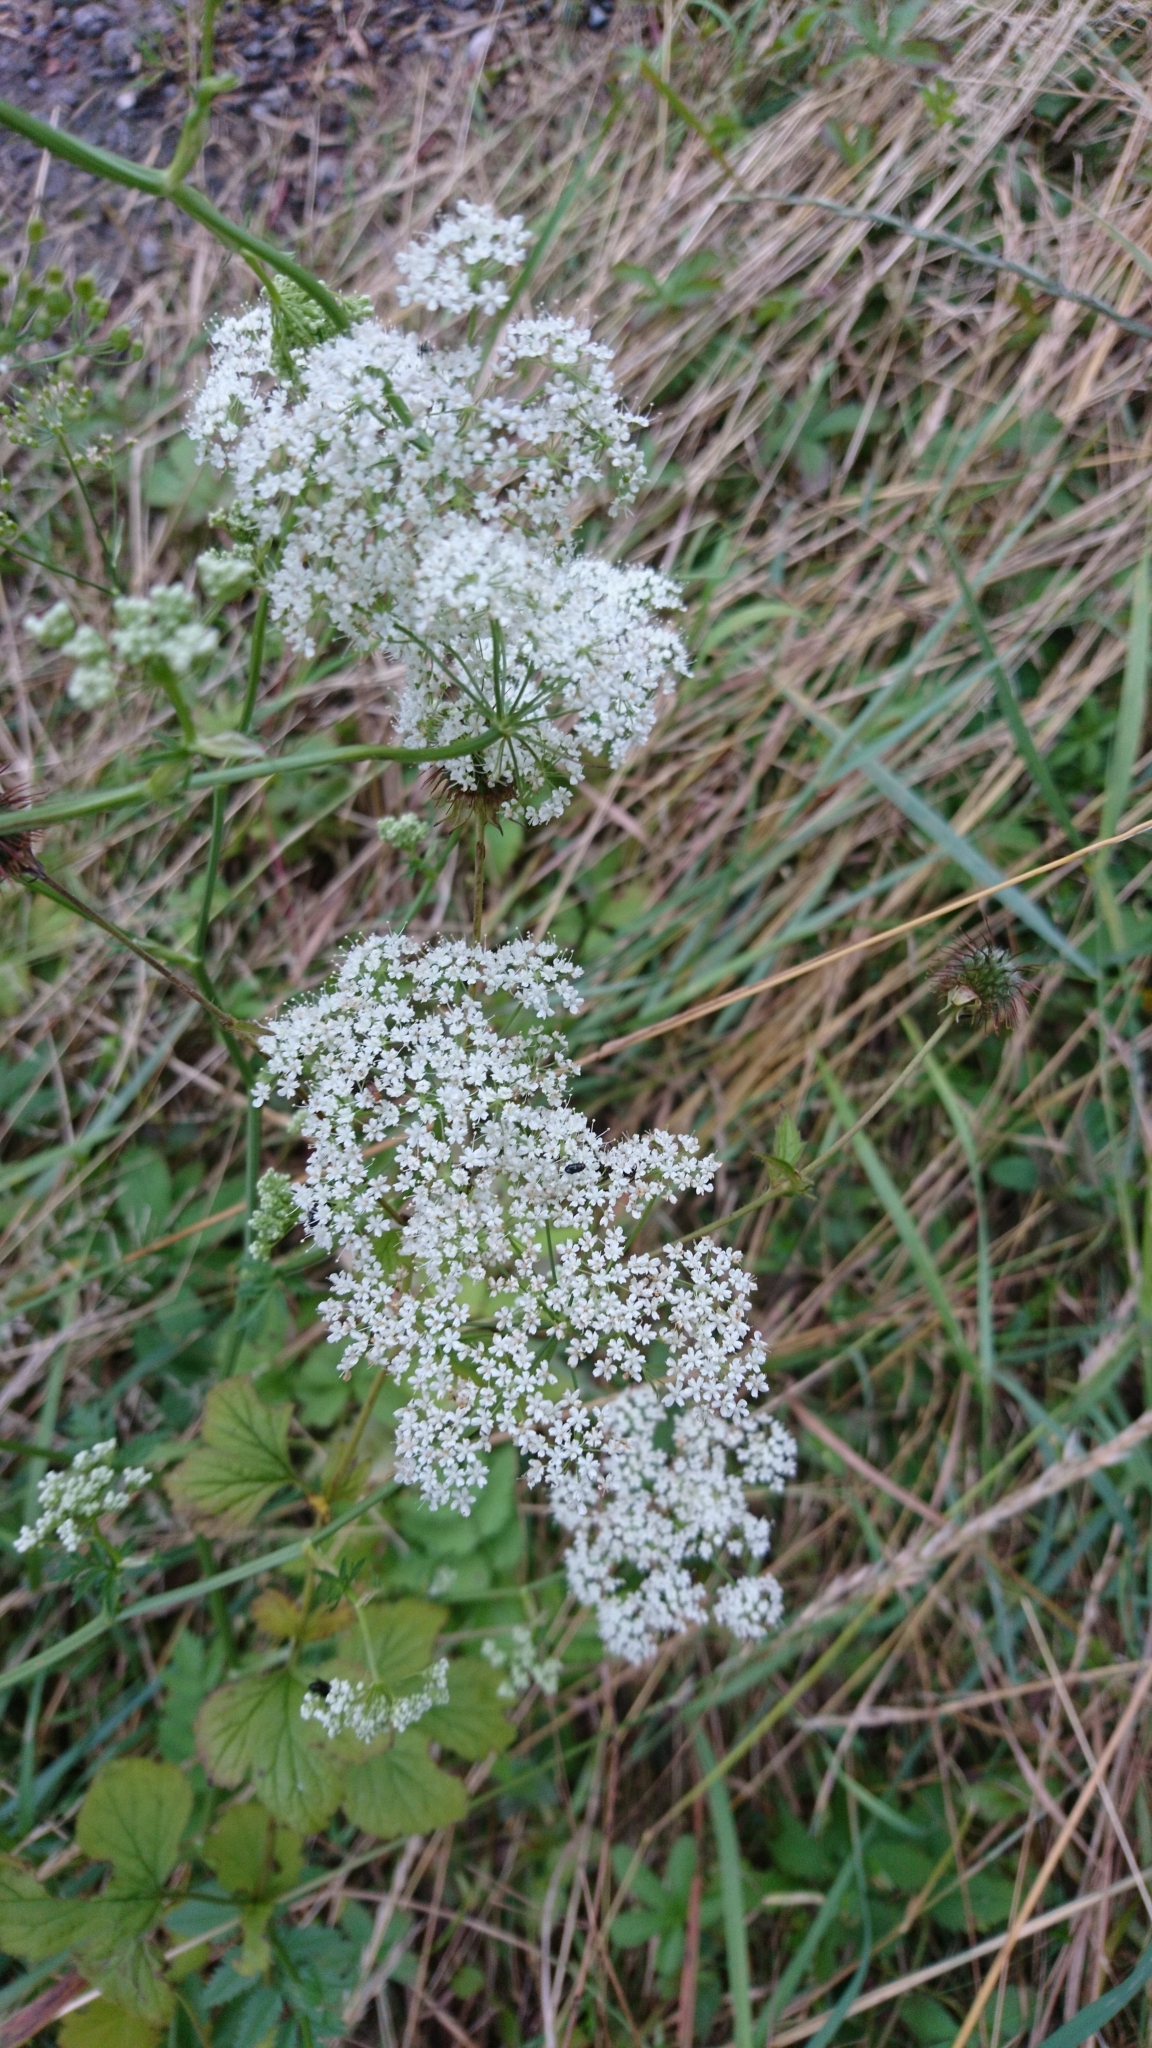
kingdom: Plantae
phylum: Tracheophyta
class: Magnoliopsida
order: Apiales
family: Apiaceae
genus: Pimpinella
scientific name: Pimpinella saxifraga
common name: Burnet-saxifrage
